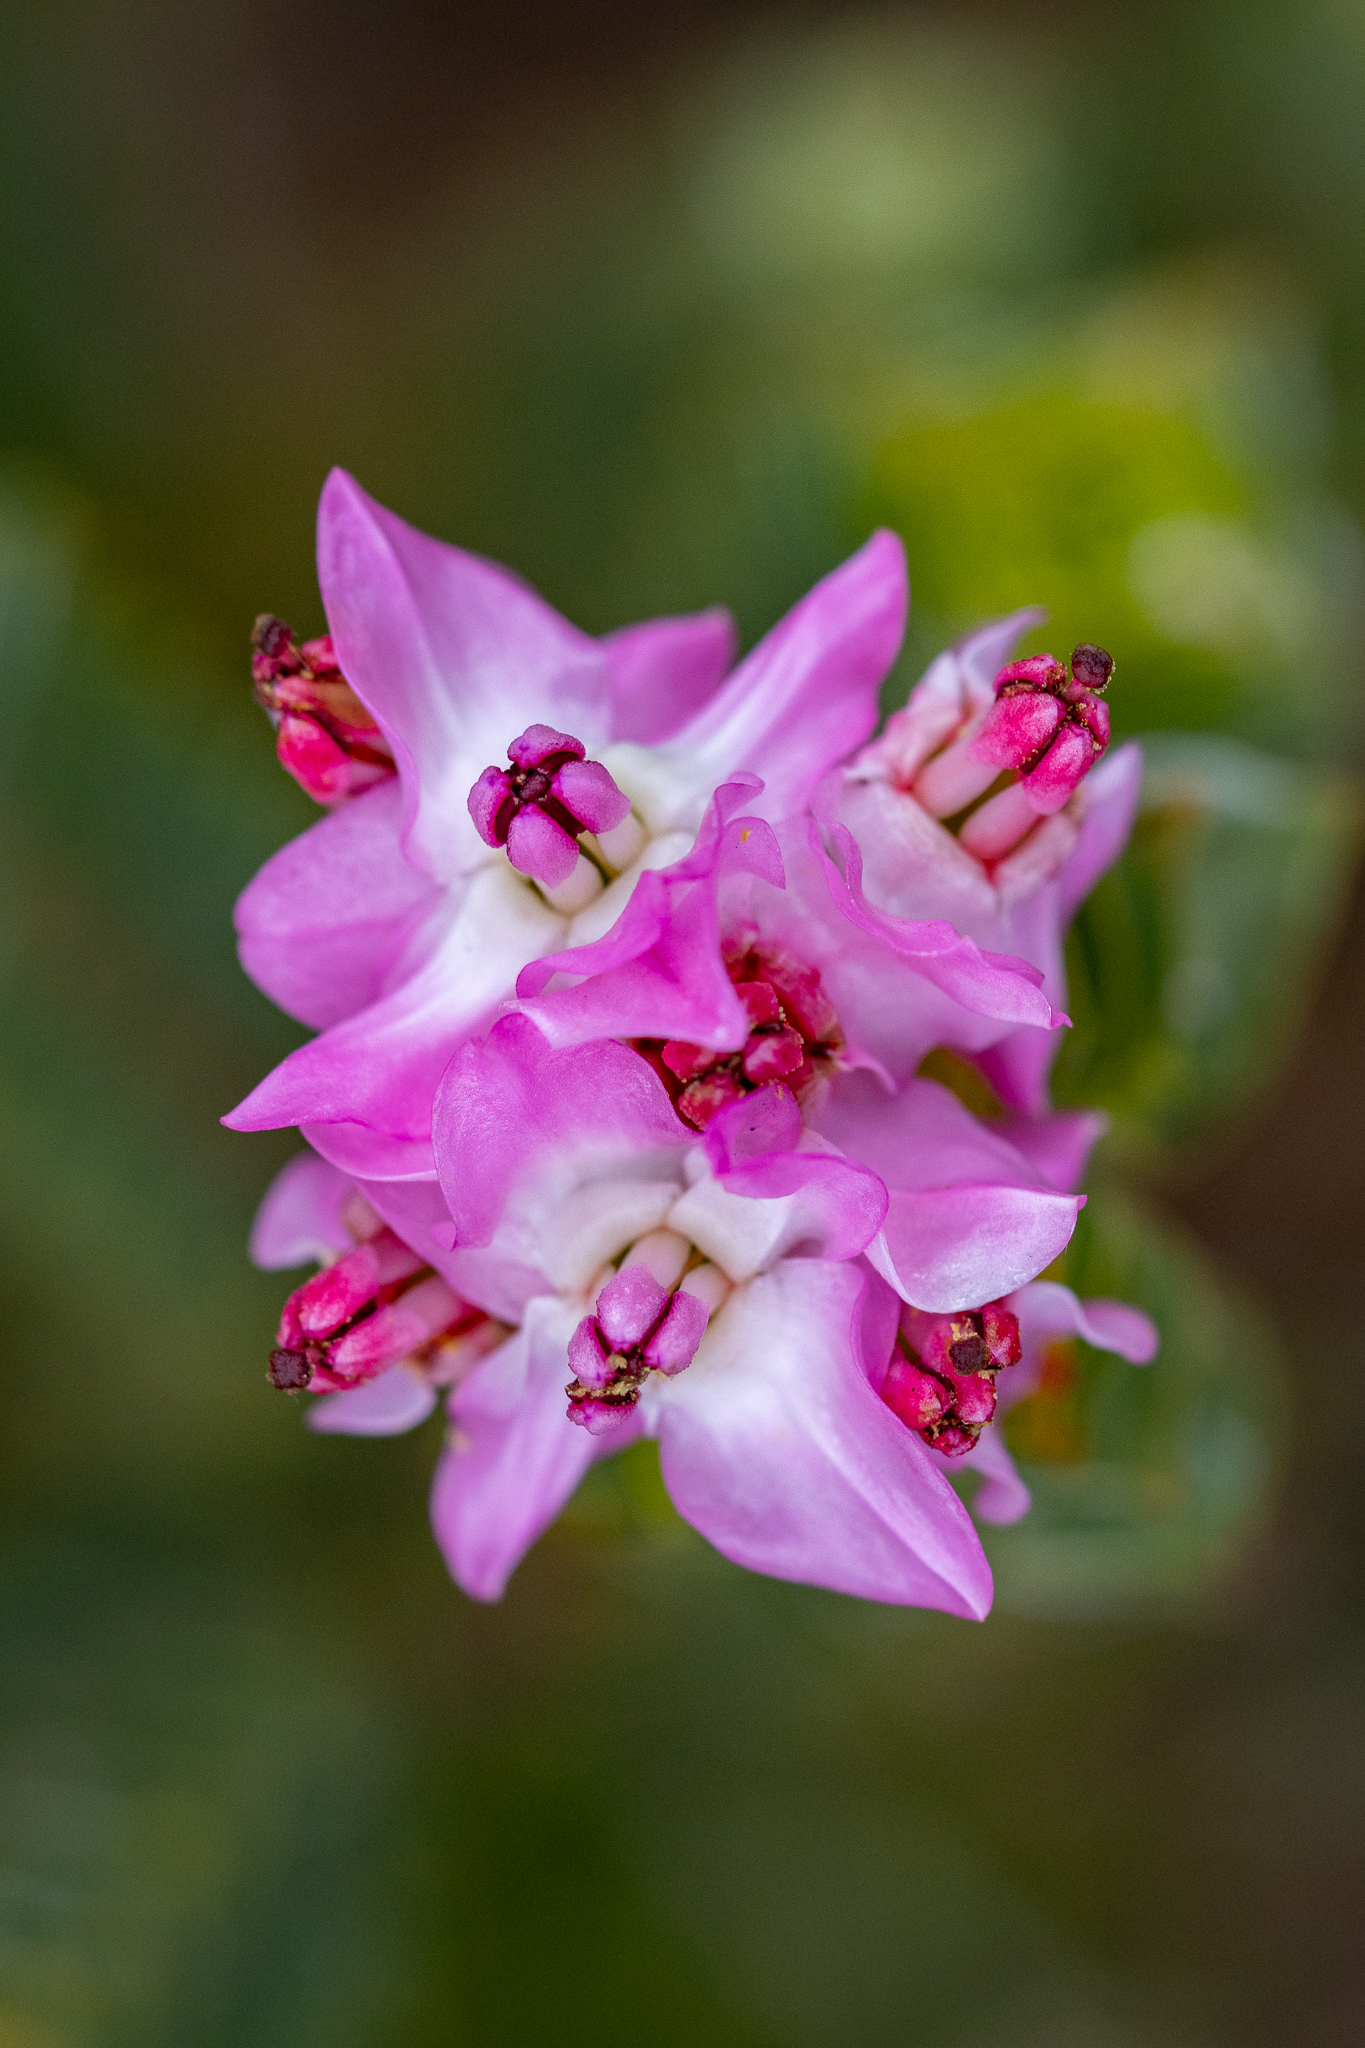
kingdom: Plantae
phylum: Tracheophyta
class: Magnoliopsida
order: Myrtales
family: Penaeaceae
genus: Saltera
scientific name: Saltera sarcocolla
